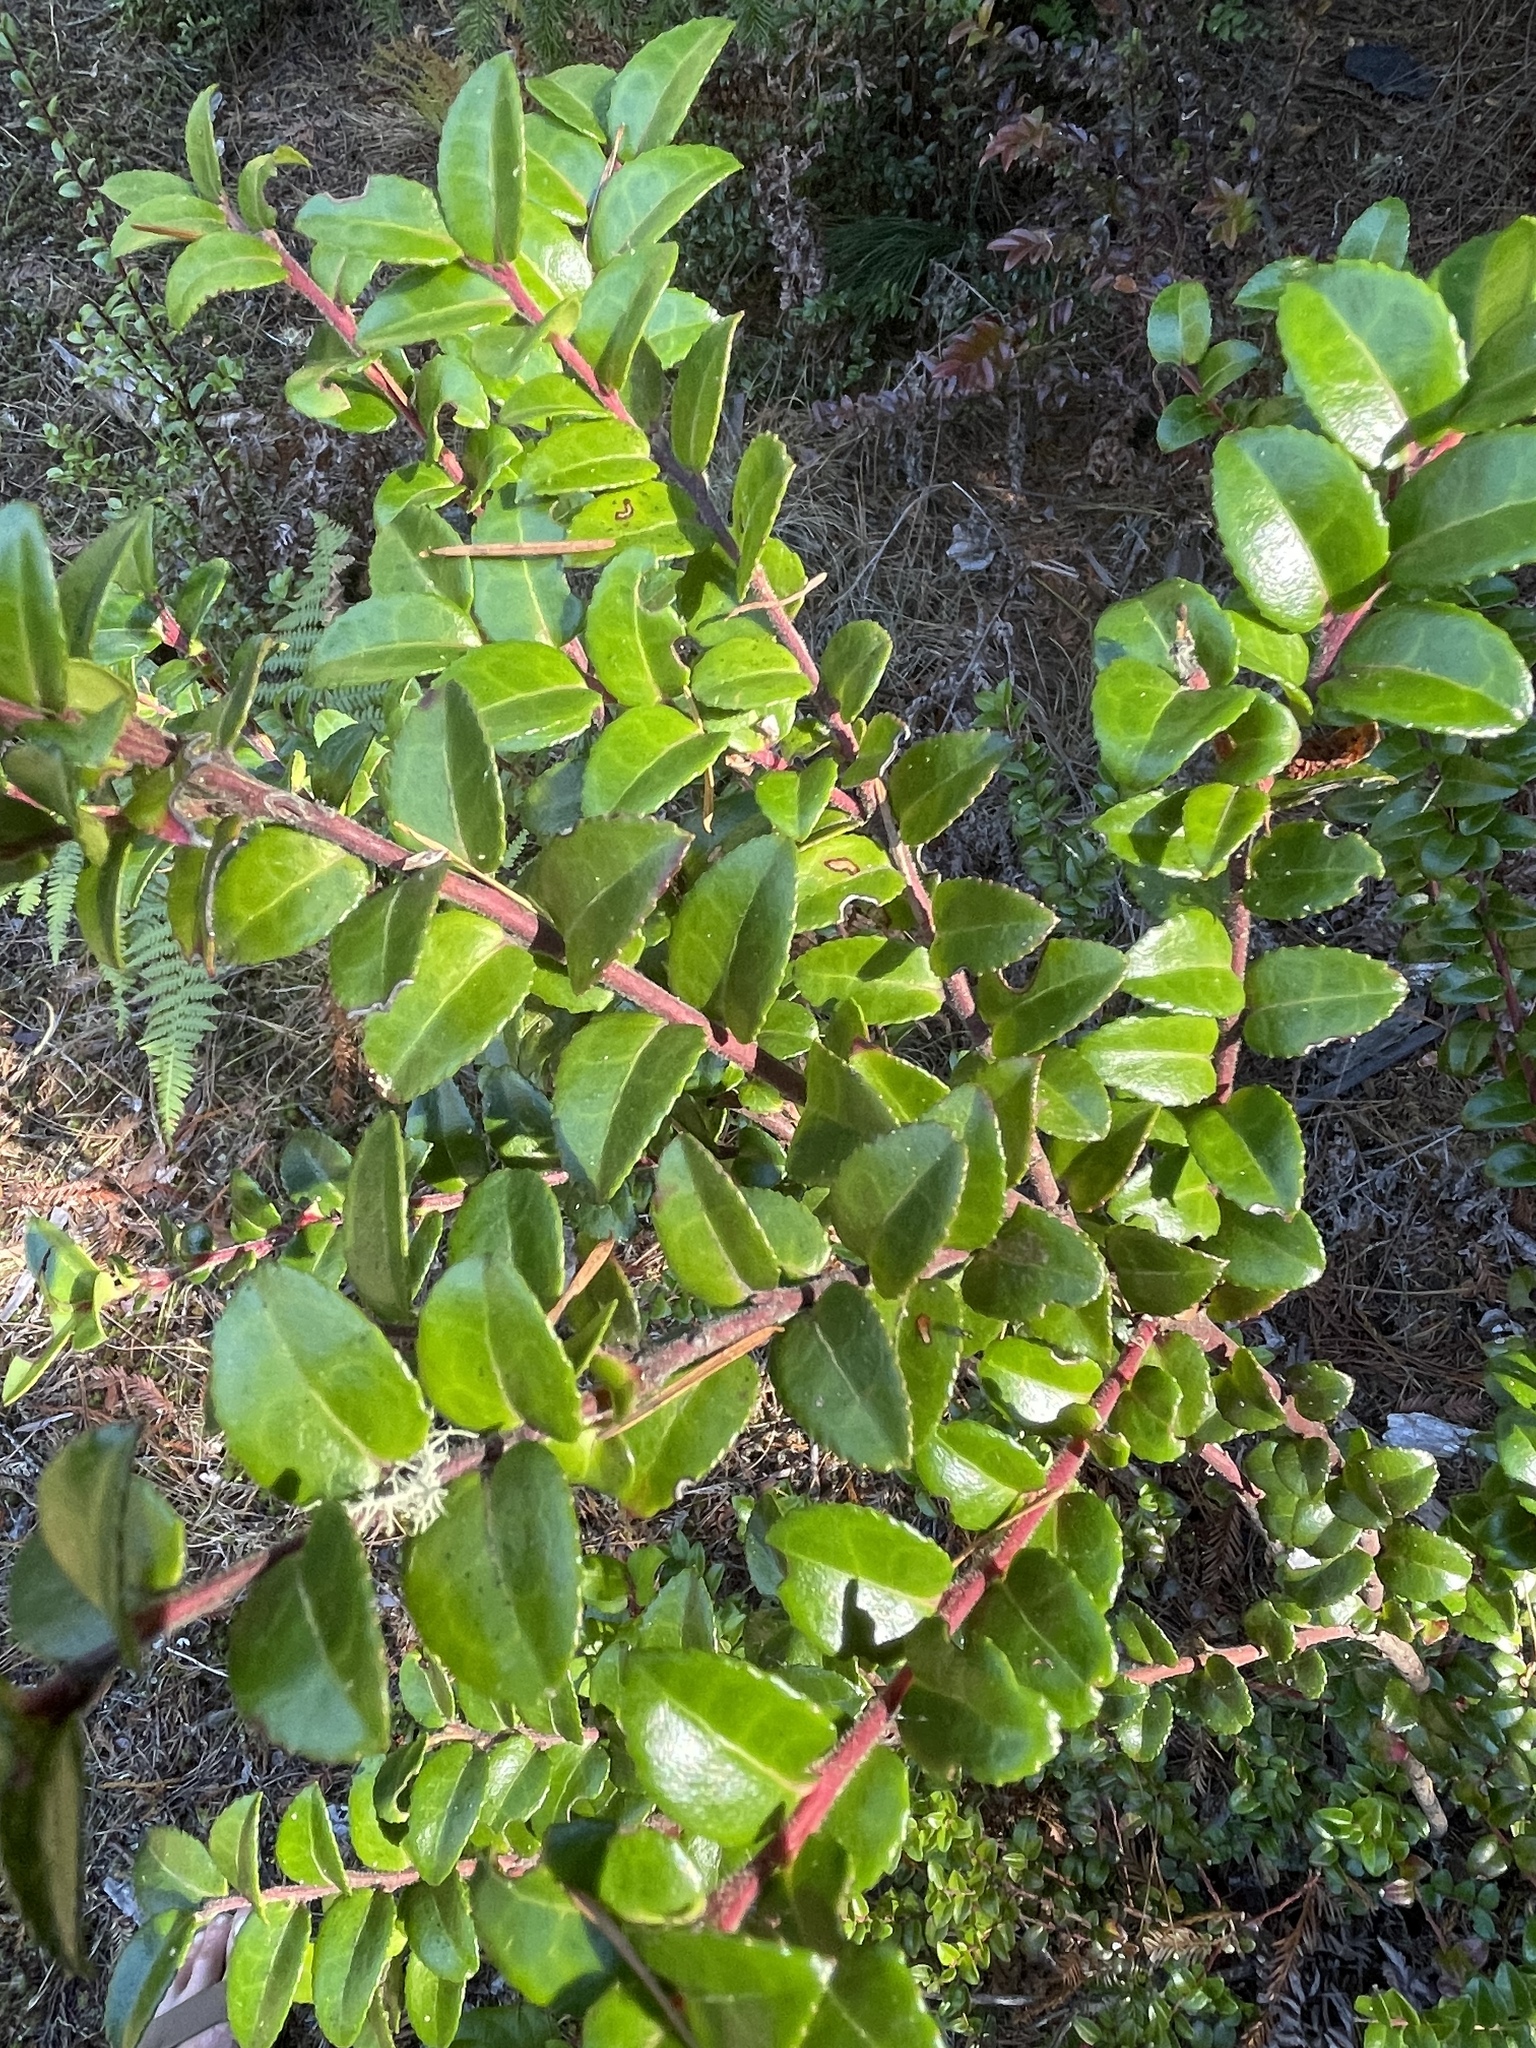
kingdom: Plantae
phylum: Tracheophyta
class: Magnoliopsida
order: Ericales
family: Ericaceae
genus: Vaccinium
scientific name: Vaccinium ovatum
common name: California-huckleberry
